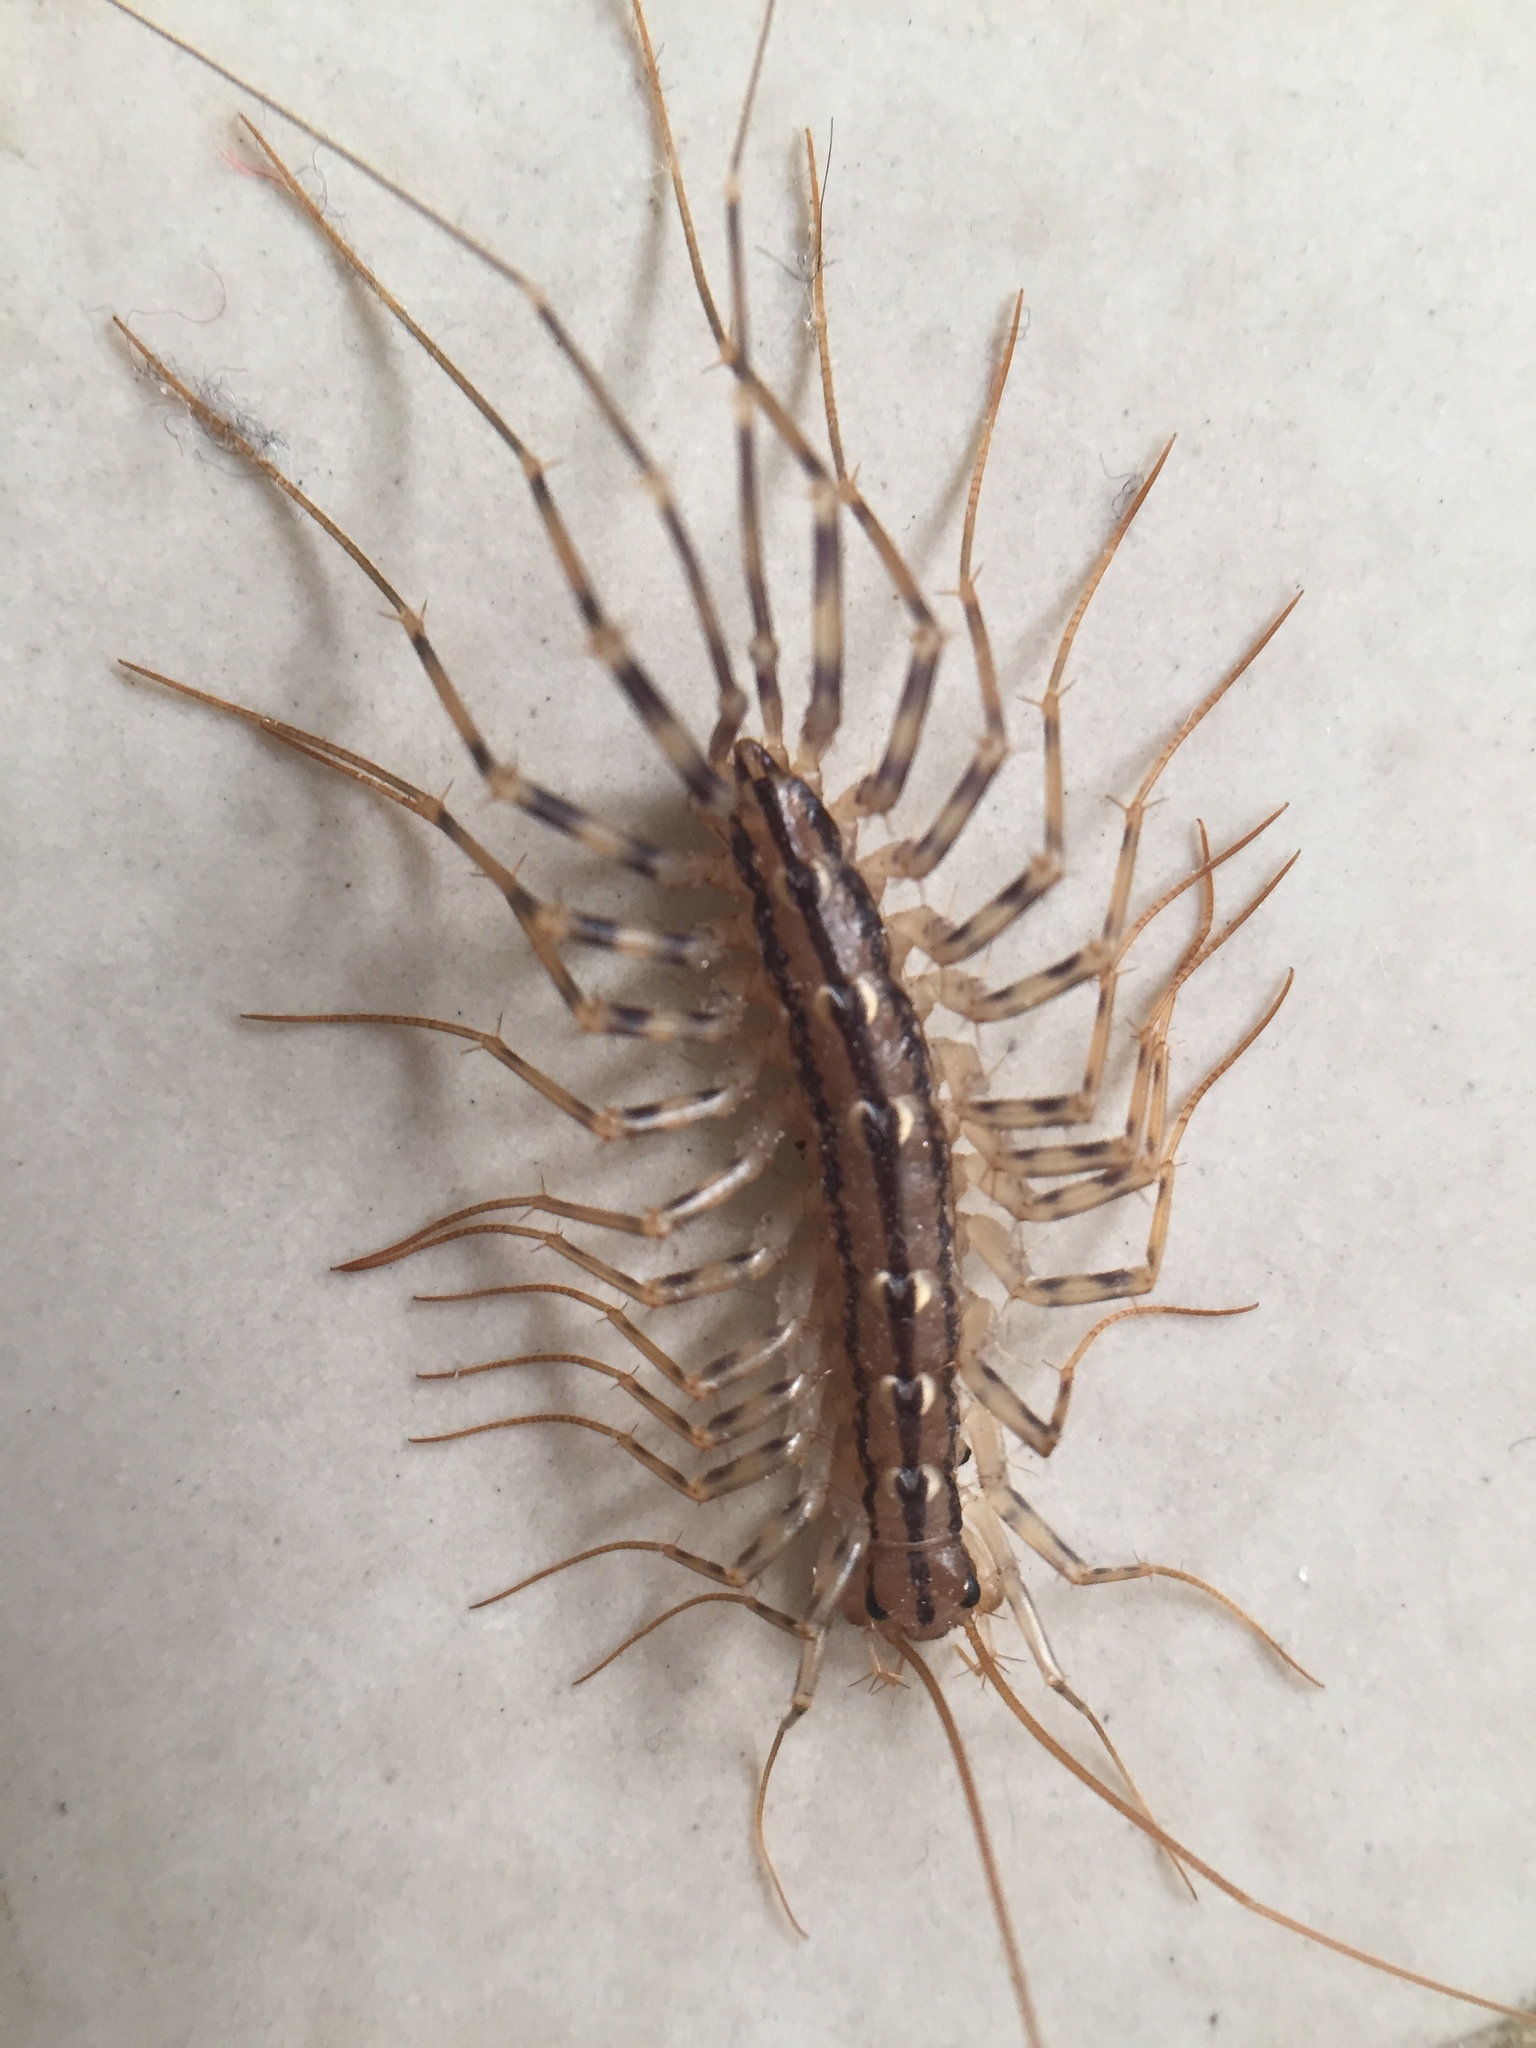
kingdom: Animalia
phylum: Arthropoda
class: Chilopoda
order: Scutigeromorpha
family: Scutigeridae
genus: Scutigera
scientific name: Scutigera coleoptrata
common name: House centipede
